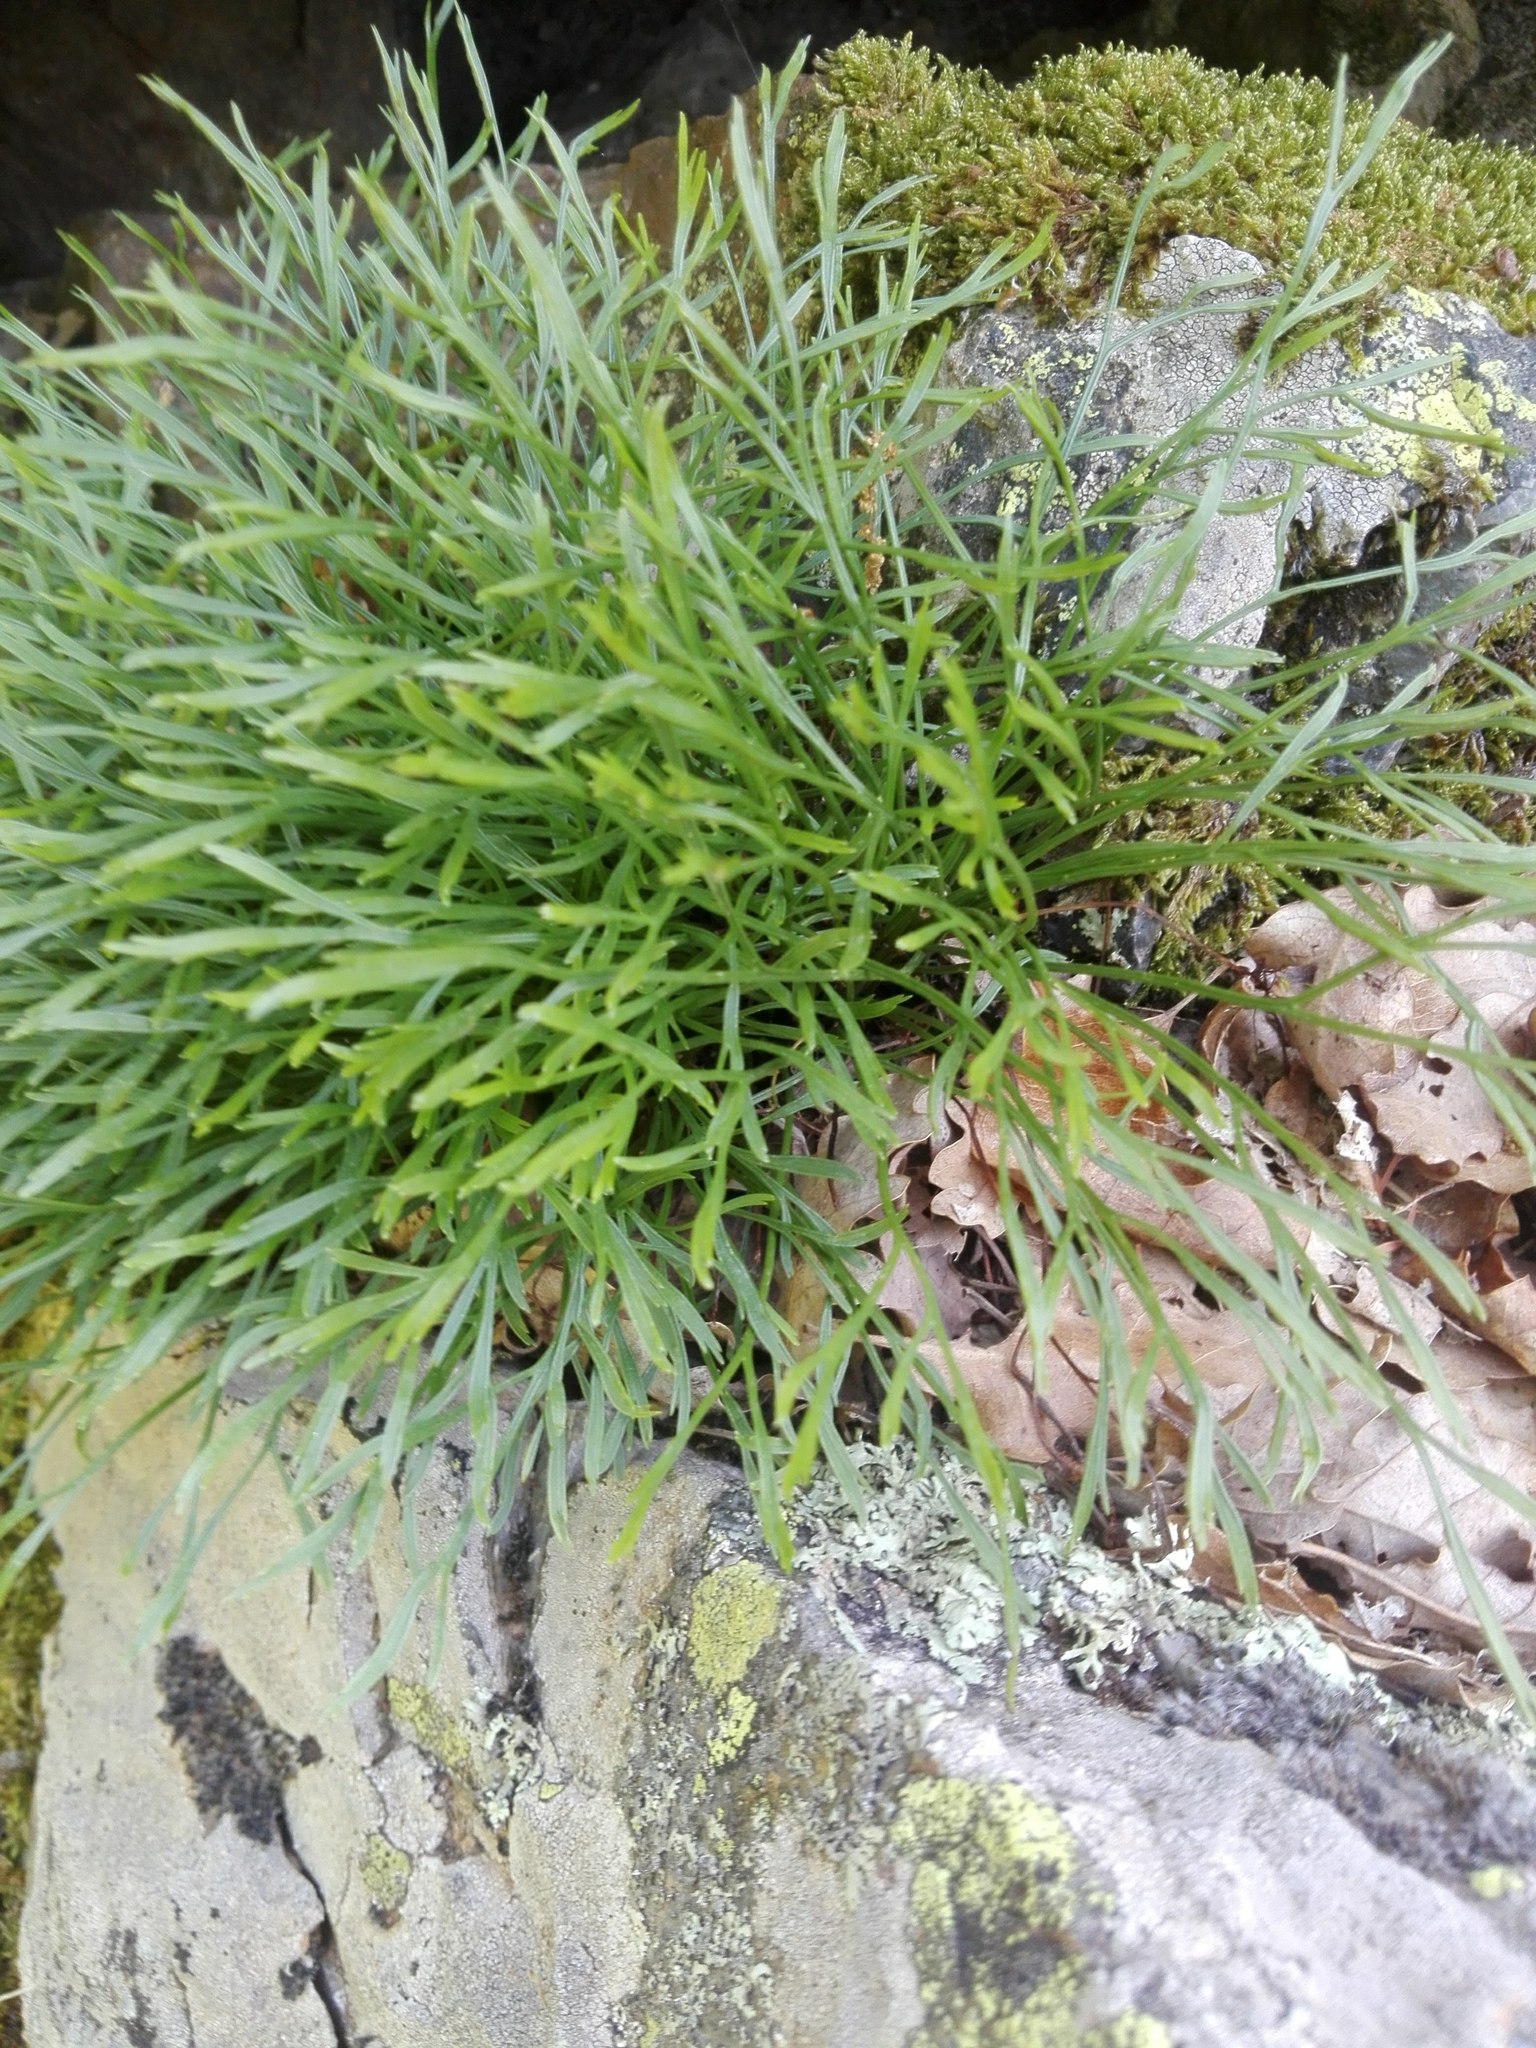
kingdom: Plantae
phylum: Tracheophyta
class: Polypodiopsida
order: Polypodiales
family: Aspleniaceae
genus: Asplenium
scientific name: Asplenium septentrionale
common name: Forked spleenwort
